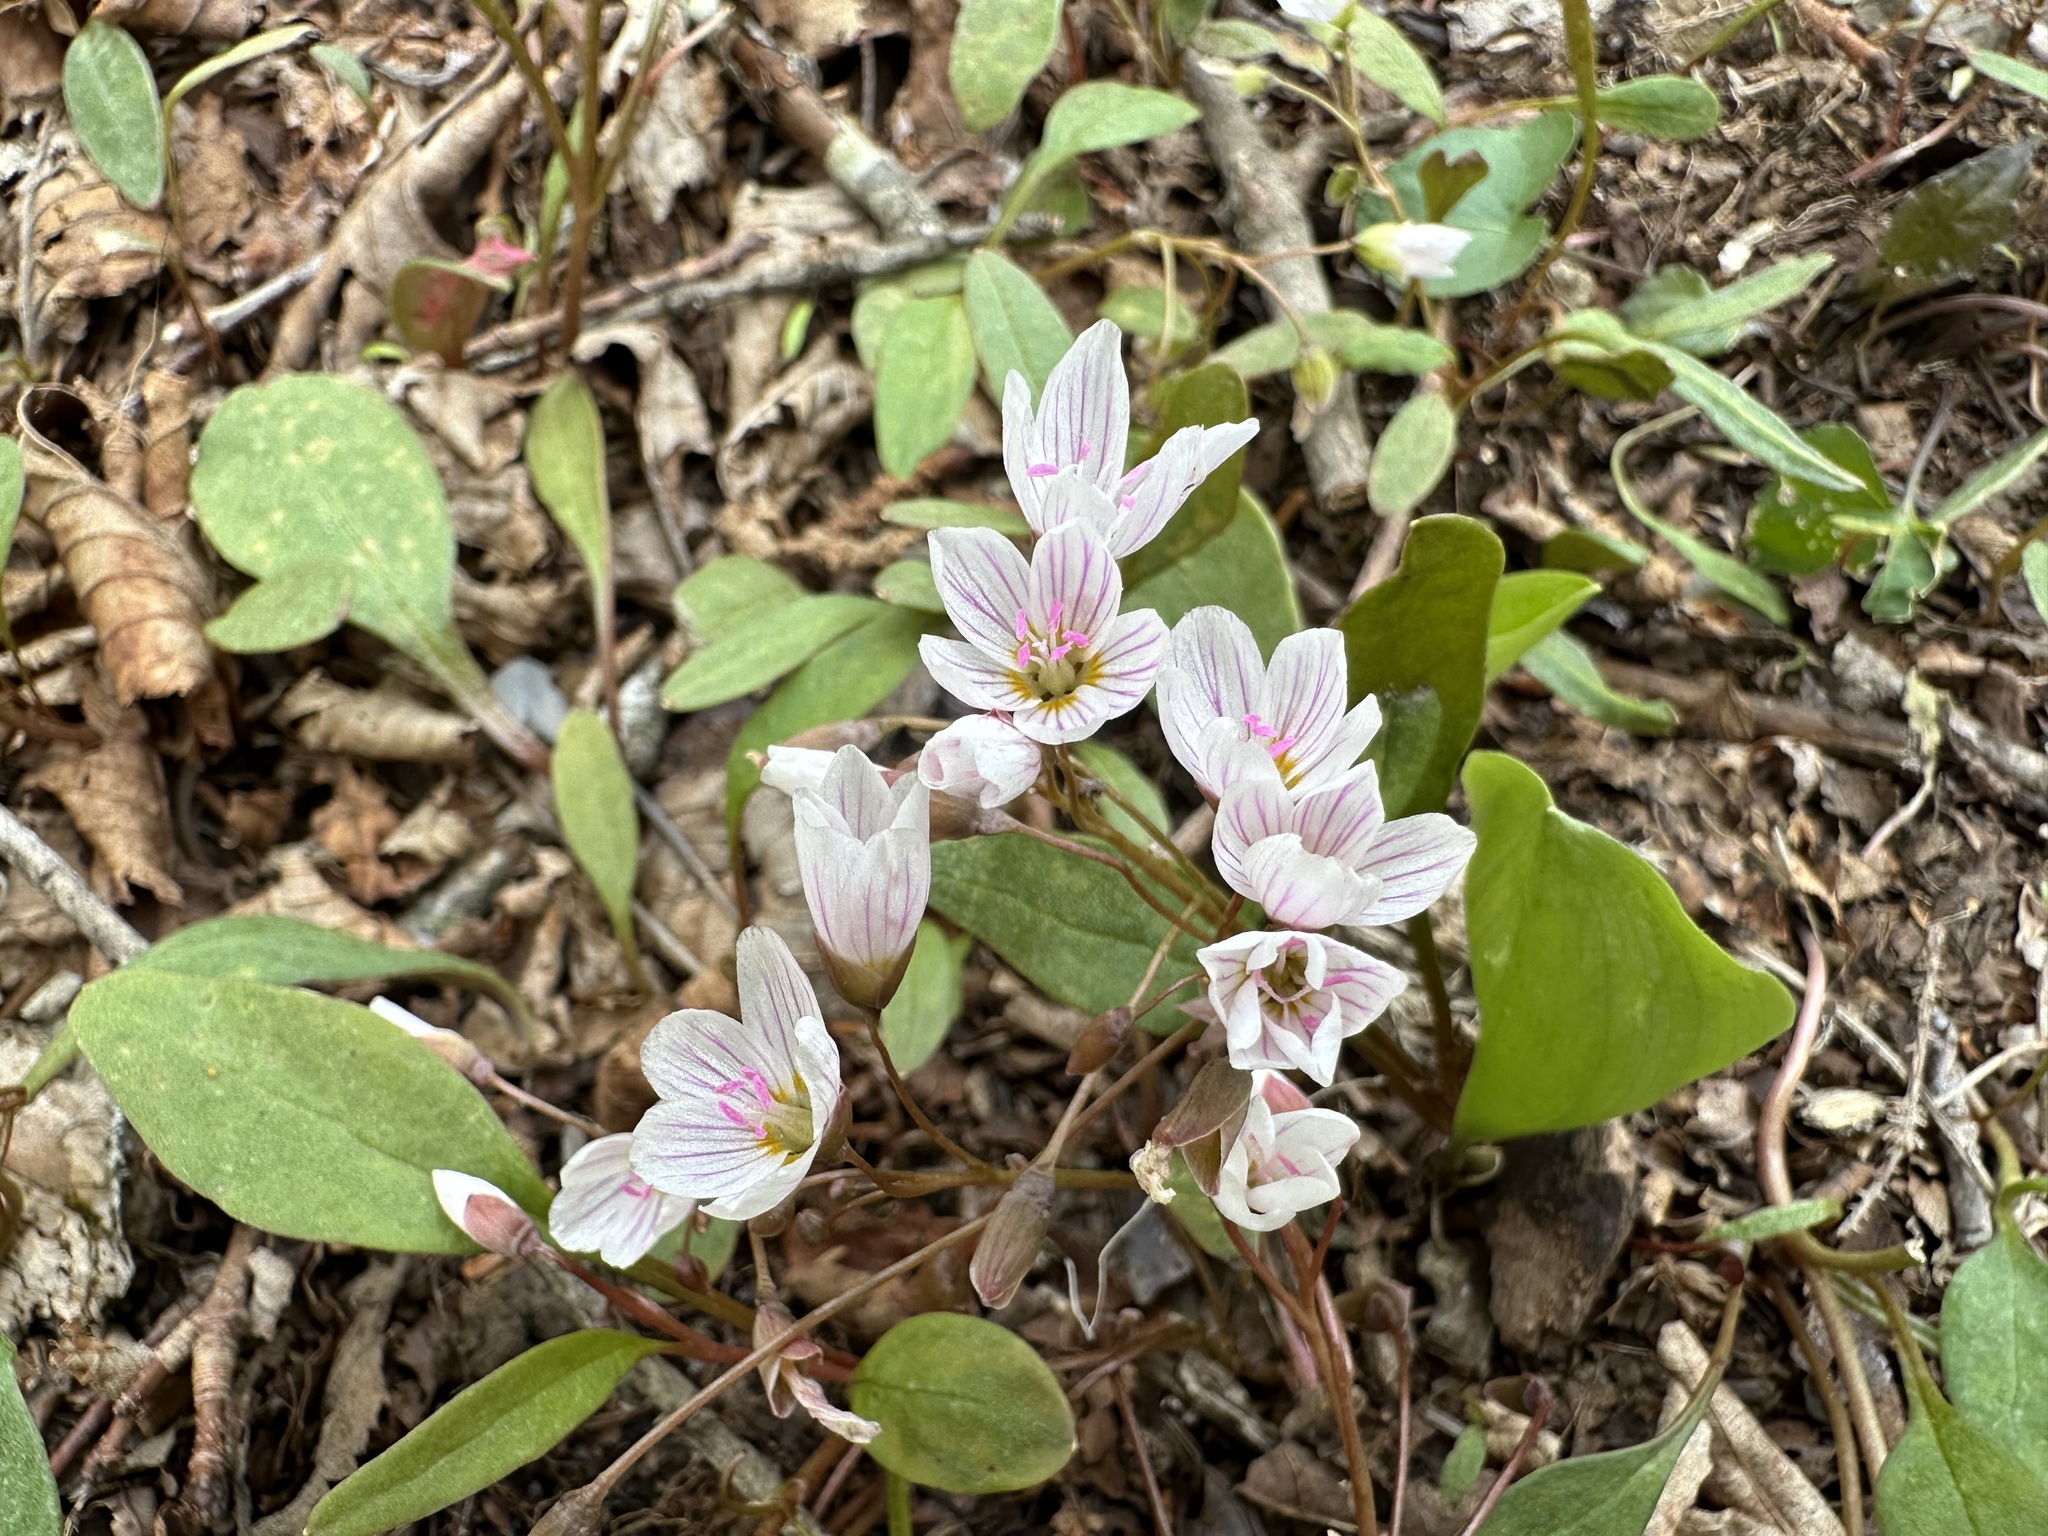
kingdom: Plantae
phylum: Tracheophyta
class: Magnoliopsida
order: Caryophyllales
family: Montiaceae
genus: Claytonia
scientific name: Claytonia caroliniana
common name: Carolina spring beauty
